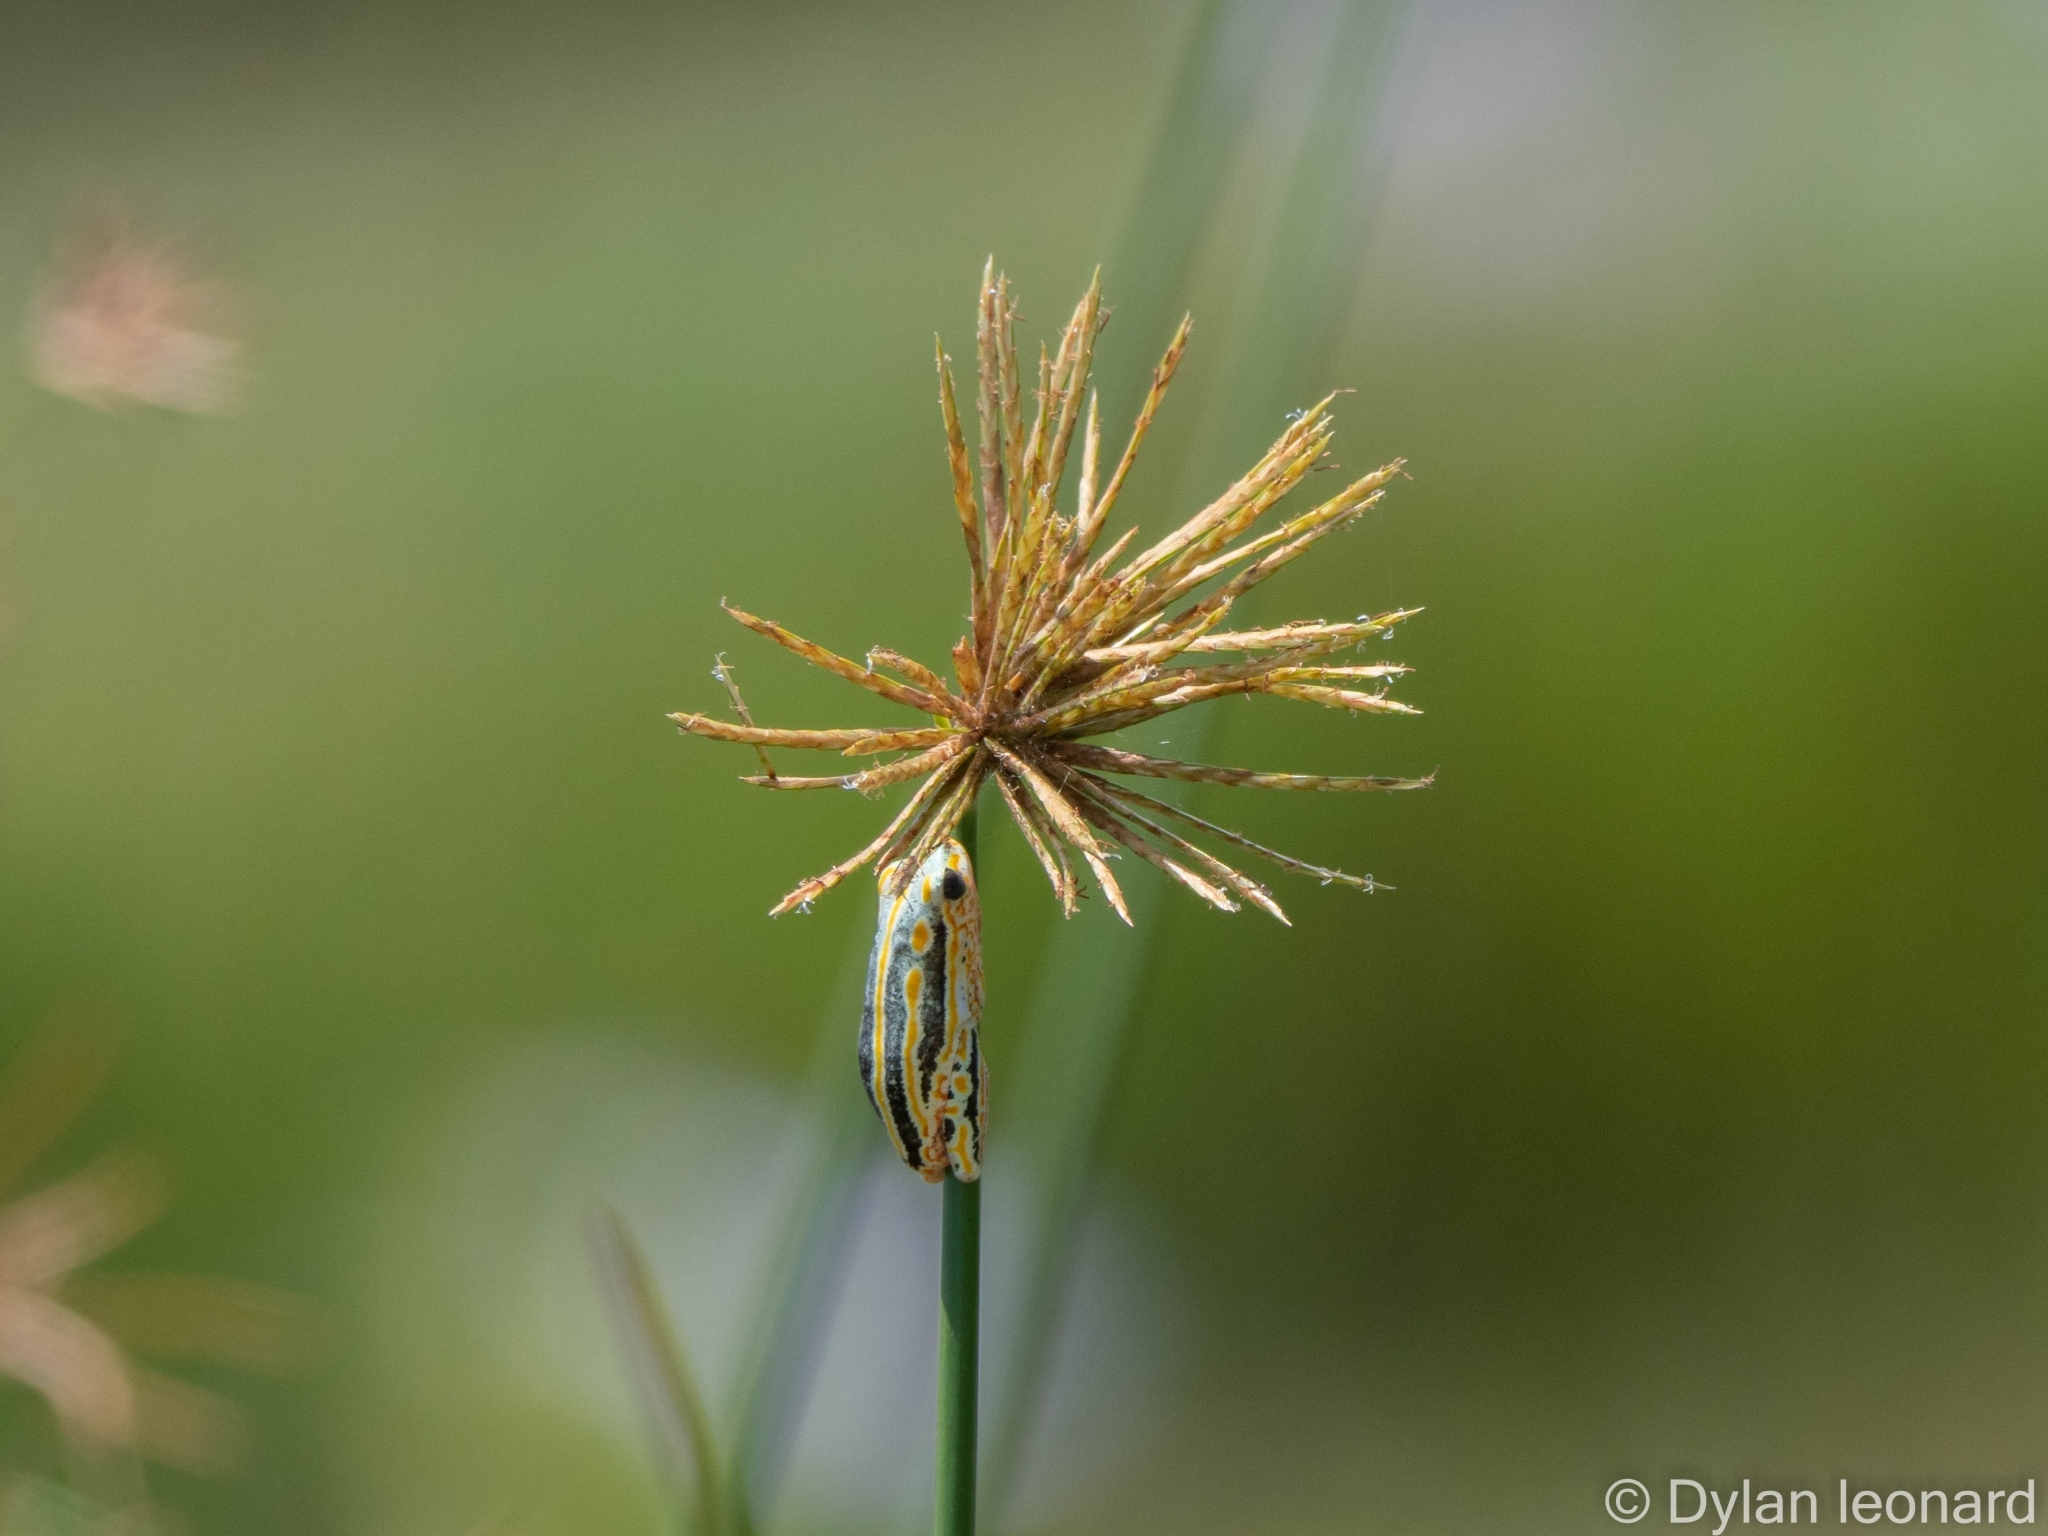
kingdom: Animalia
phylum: Chordata
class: Amphibia
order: Anura
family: Hyperoliidae
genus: Hyperolius
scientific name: Hyperolius marmoratus
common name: Painted reed frog
